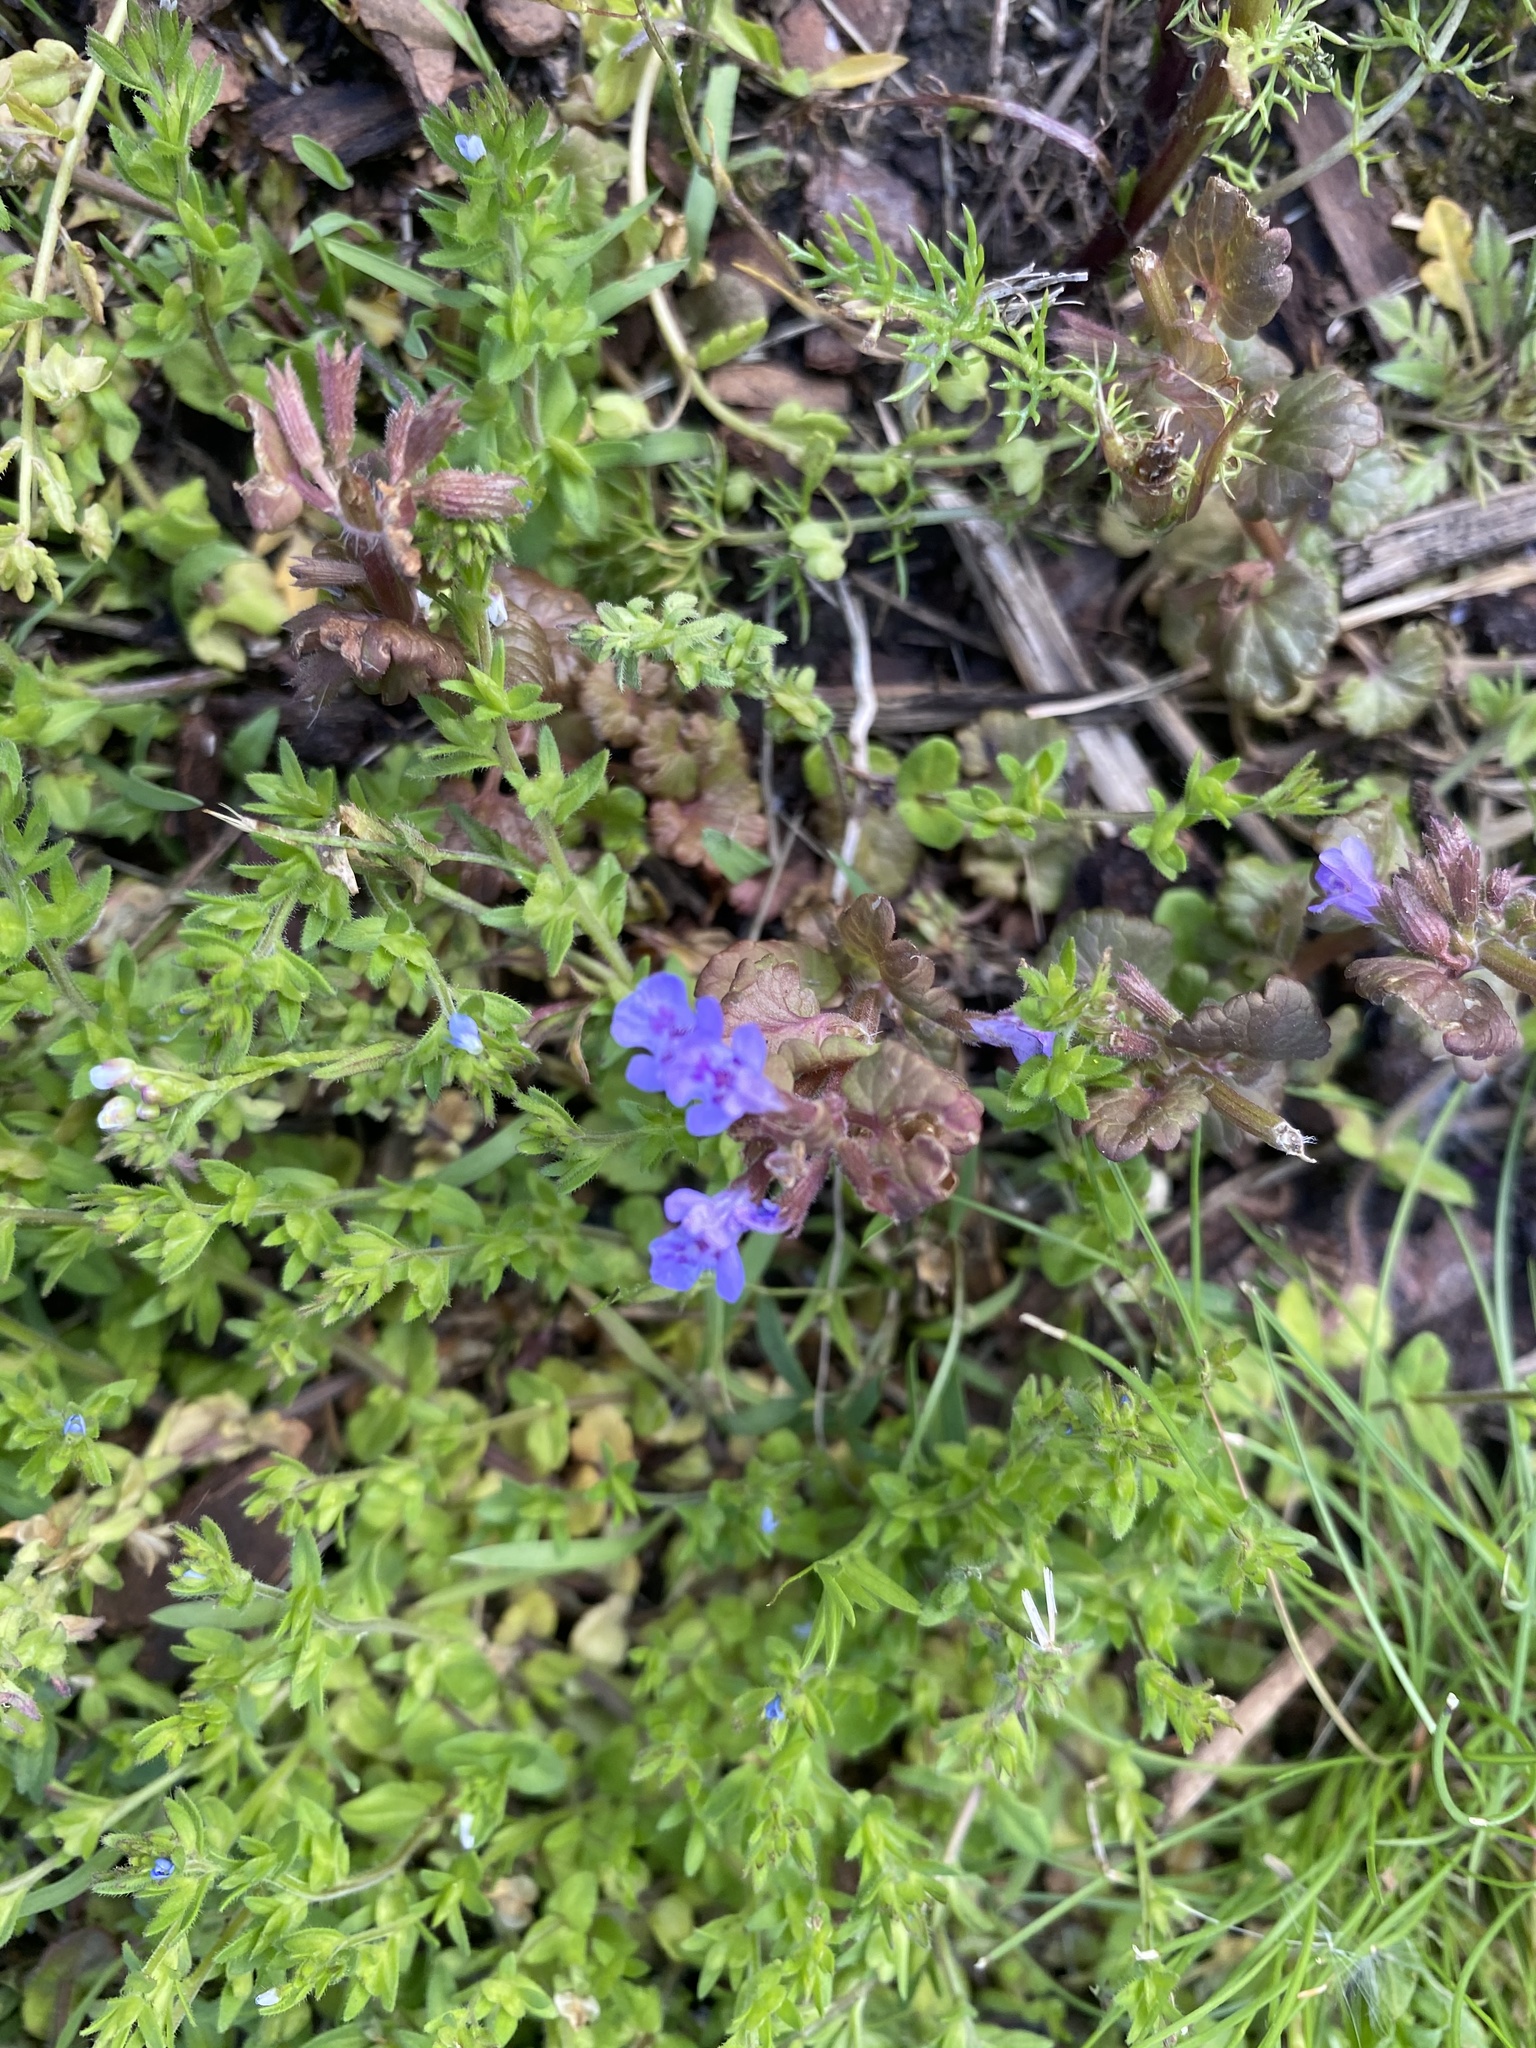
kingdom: Plantae
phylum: Tracheophyta
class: Magnoliopsida
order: Lamiales
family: Lamiaceae
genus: Glechoma
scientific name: Glechoma hederacea
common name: Ground ivy
